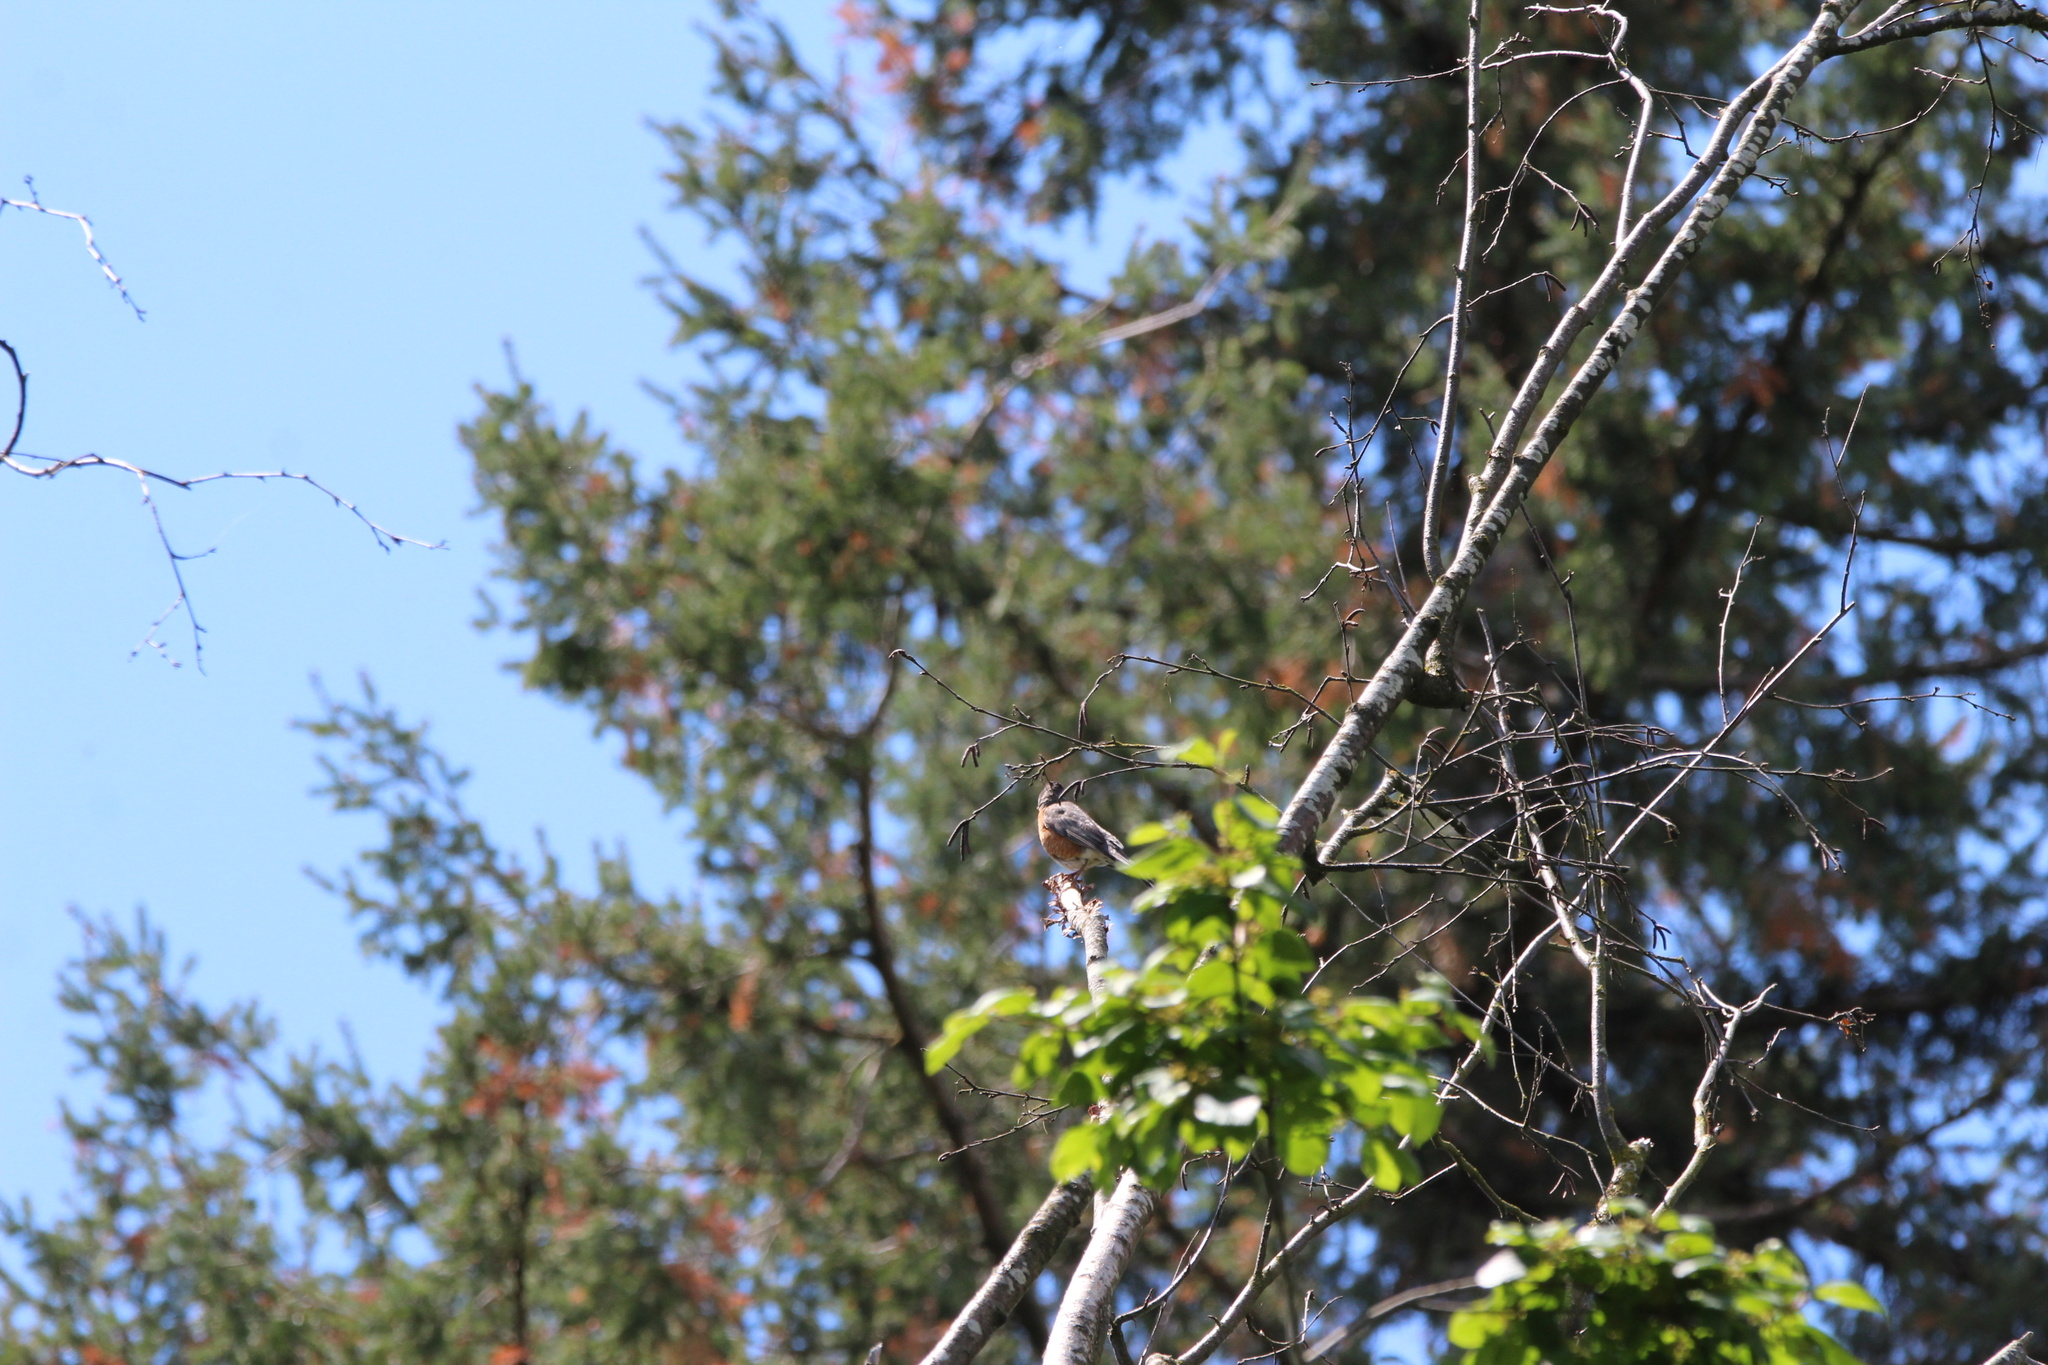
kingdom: Animalia
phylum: Chordata
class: Aves
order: Passeriformes
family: Turdidae
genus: Turdus
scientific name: Turdus migratorius
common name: American robin
